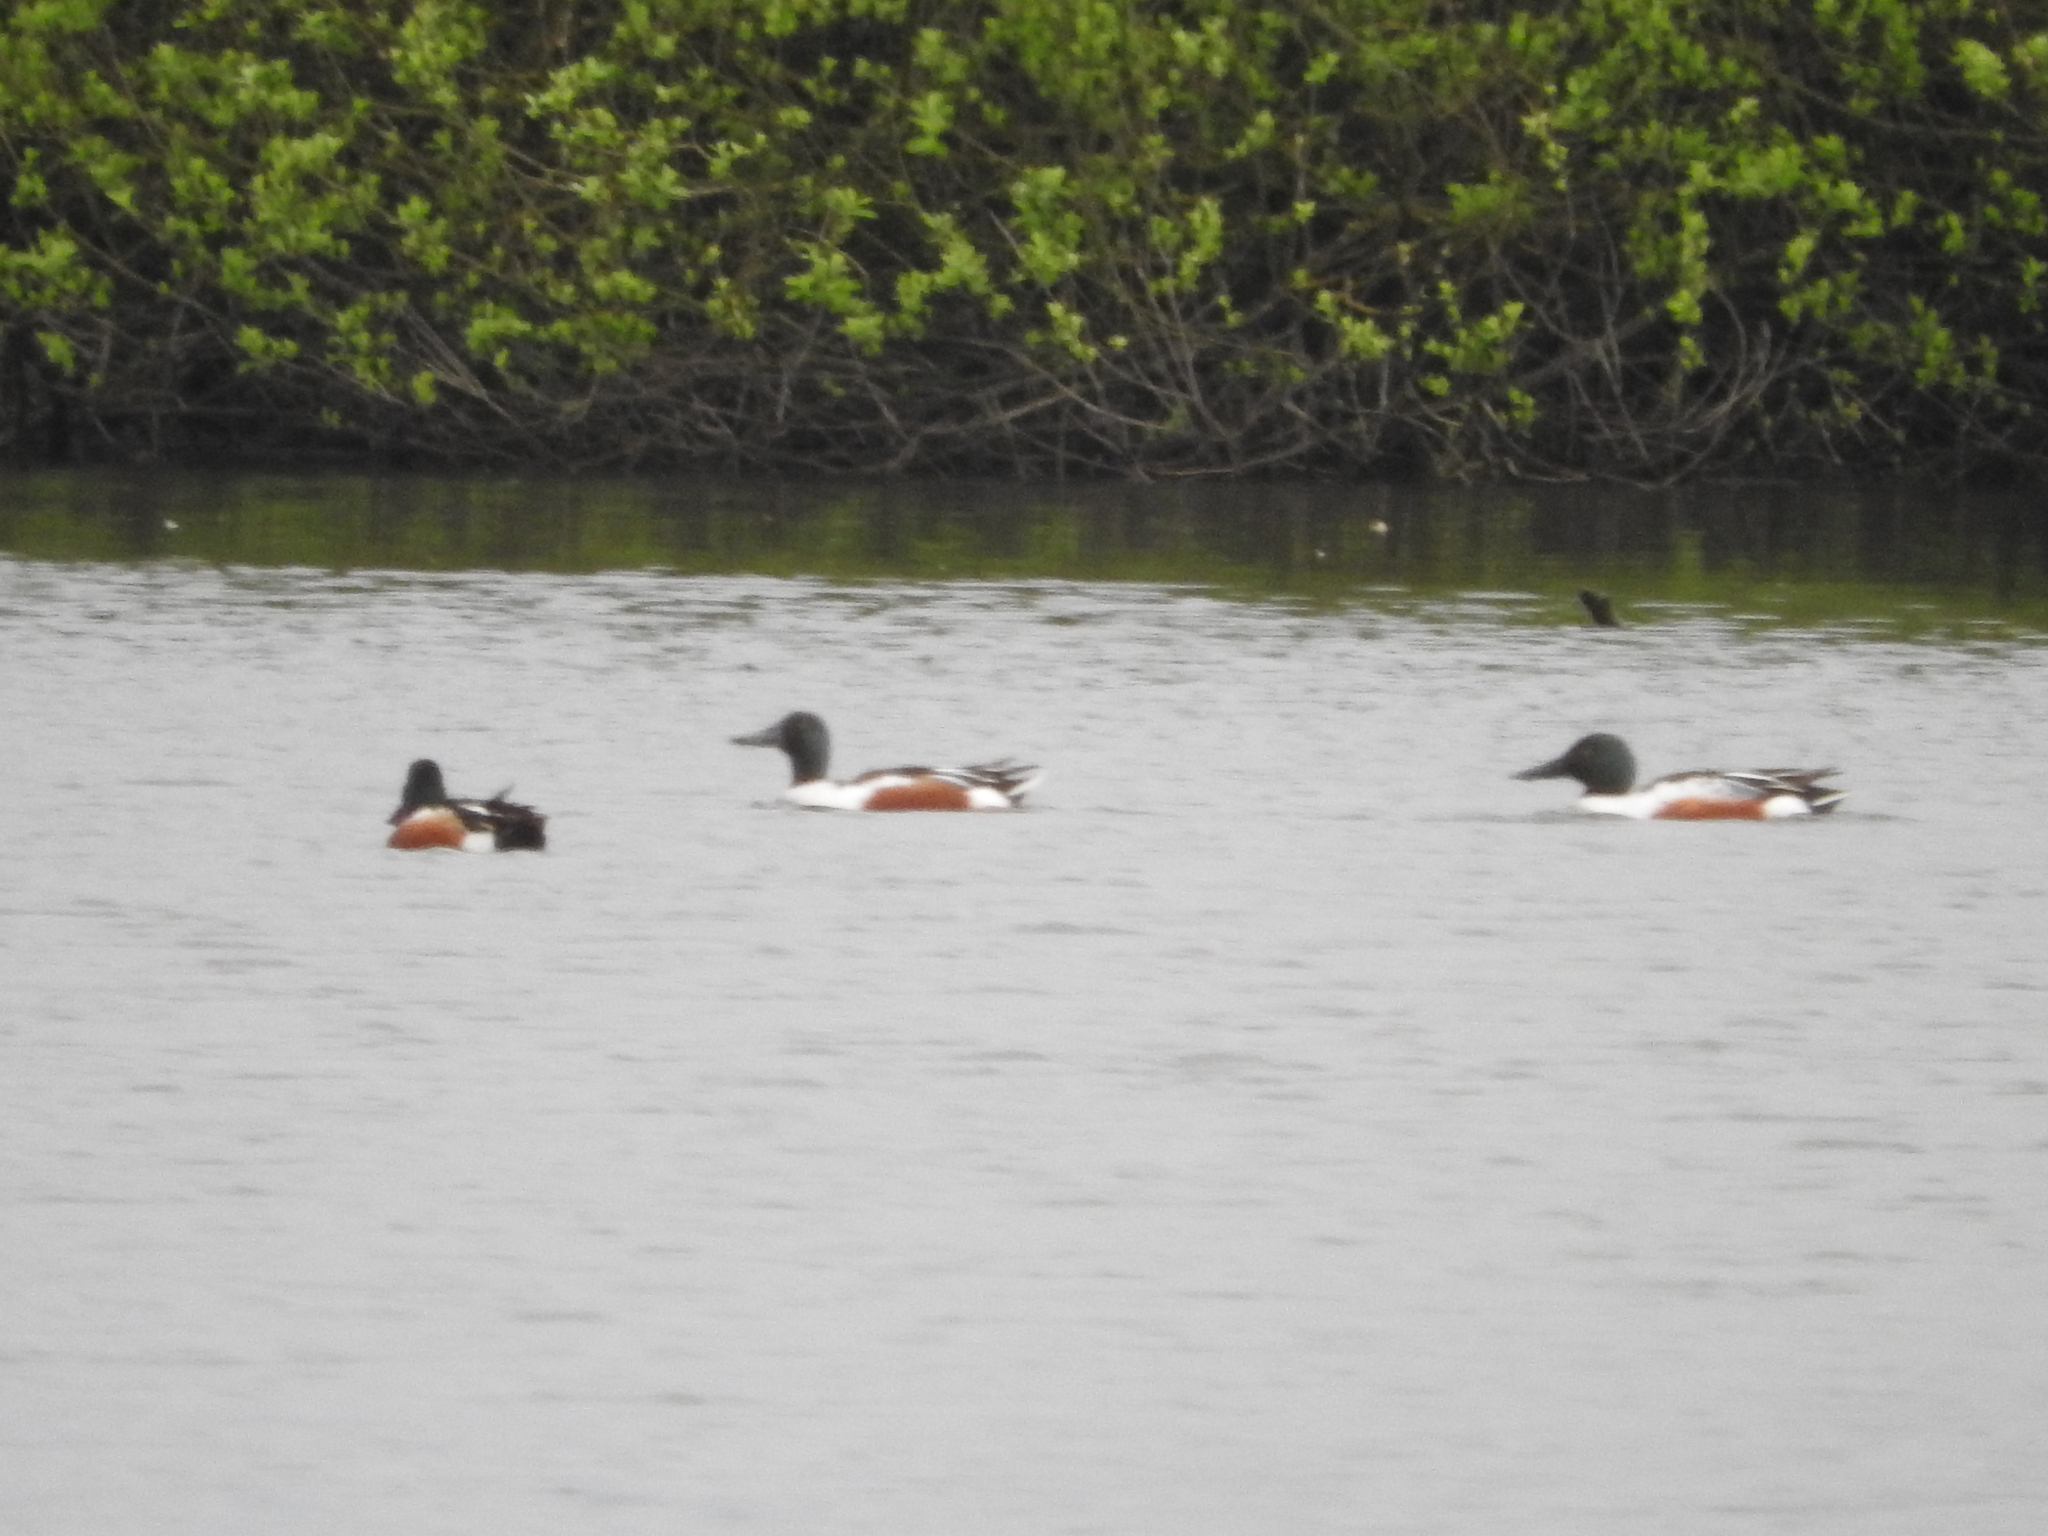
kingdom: Animalia
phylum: Chordata
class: Aves
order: Anseriformes
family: Anatidae
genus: Spatula
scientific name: Spatula clypeata
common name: Northern shoveler
